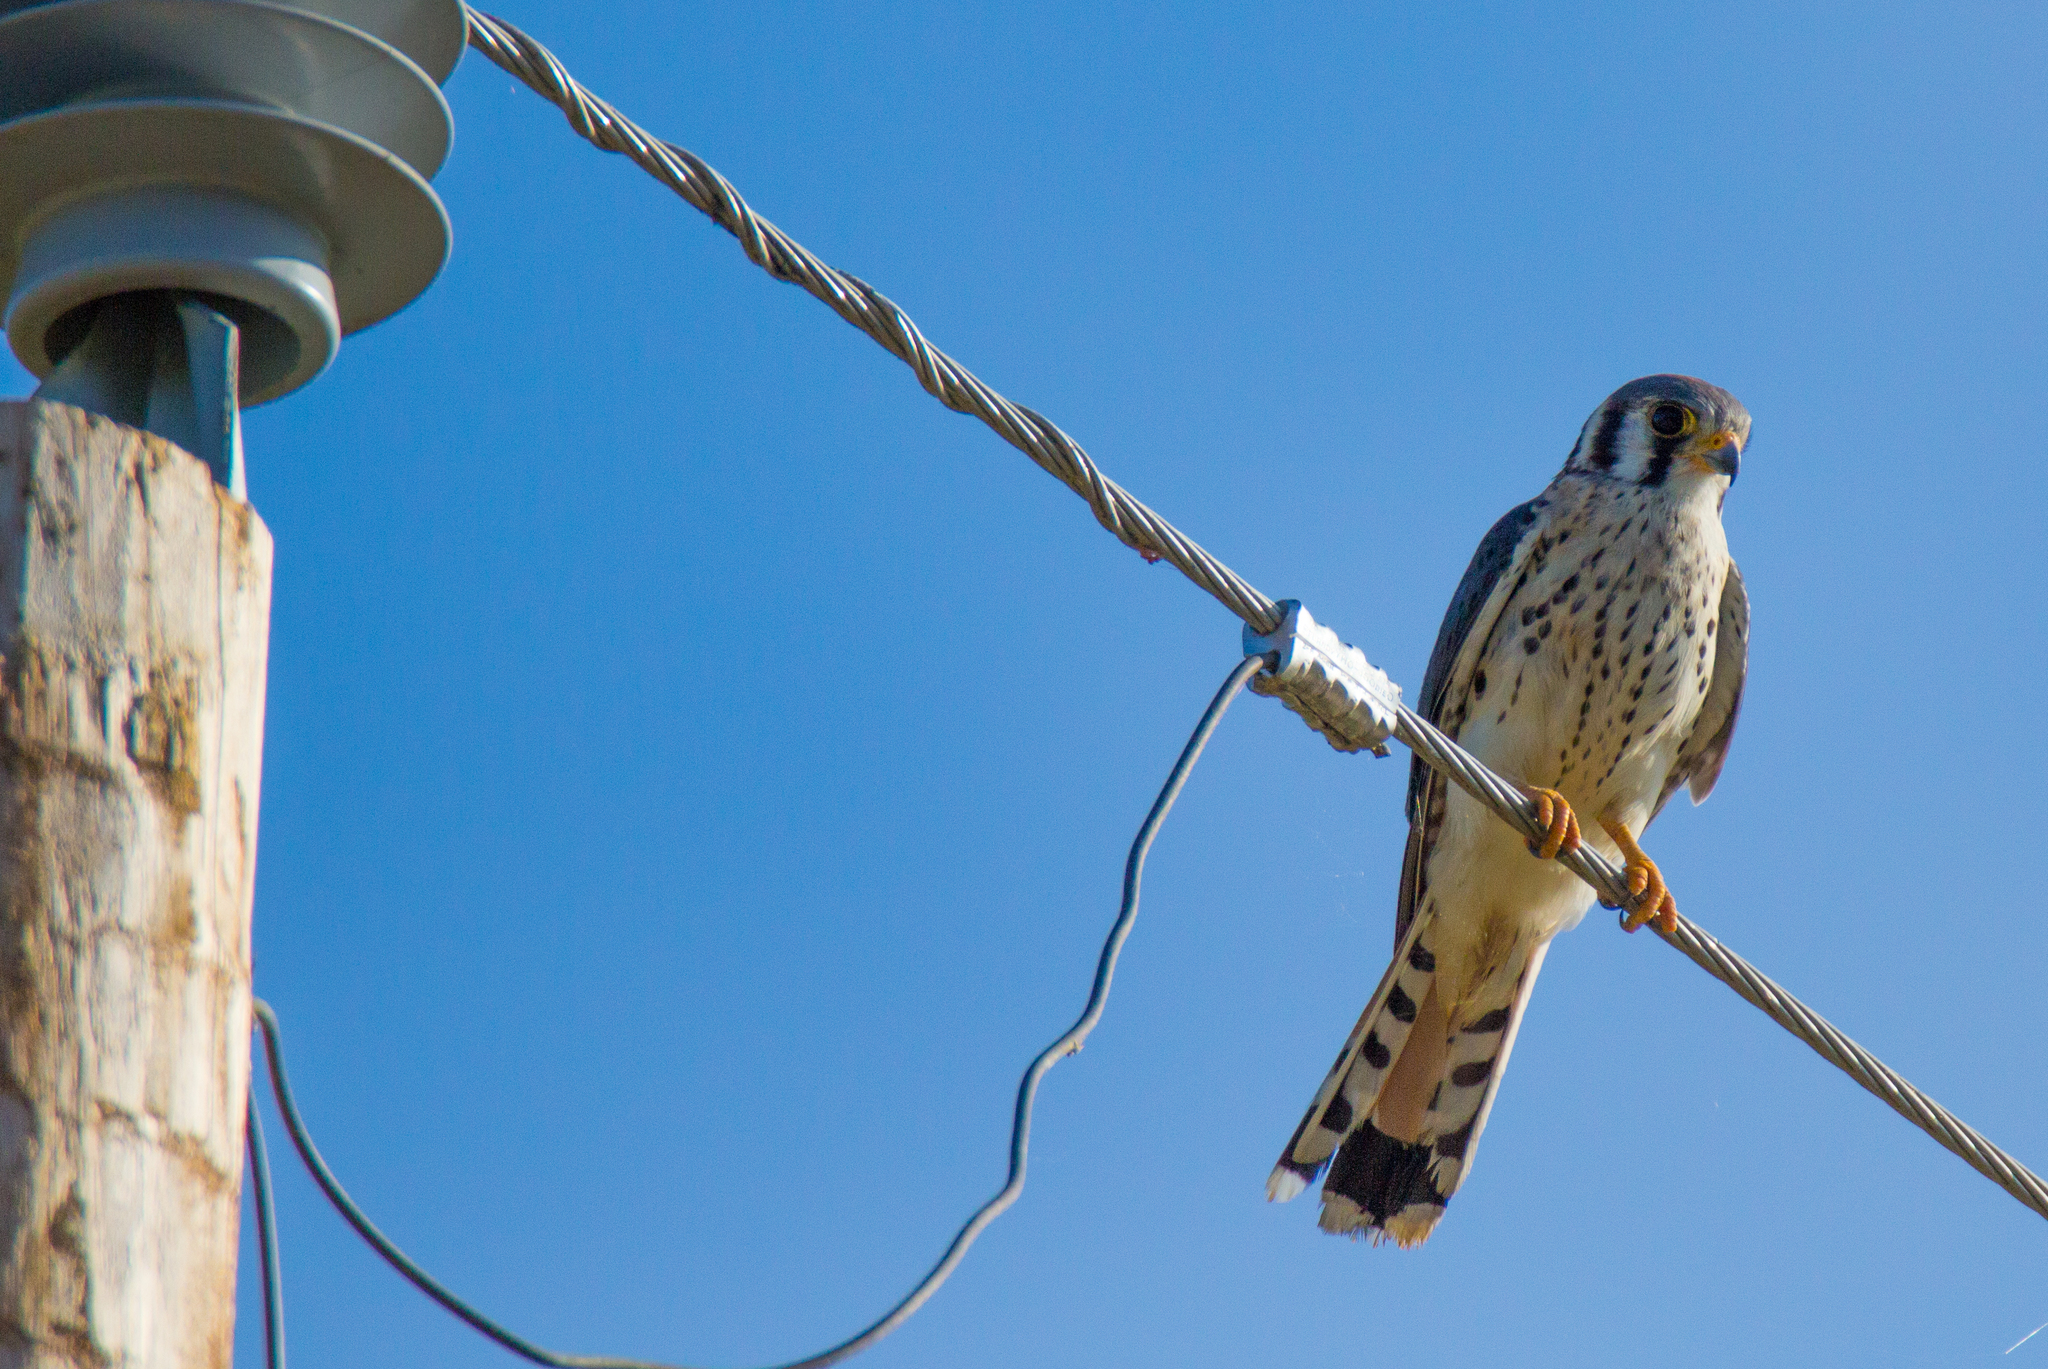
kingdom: Animalia
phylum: Chordata
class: Aves
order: Falconiformes
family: Falconidae
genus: Falco
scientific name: Falco sparverius
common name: American kestrel
